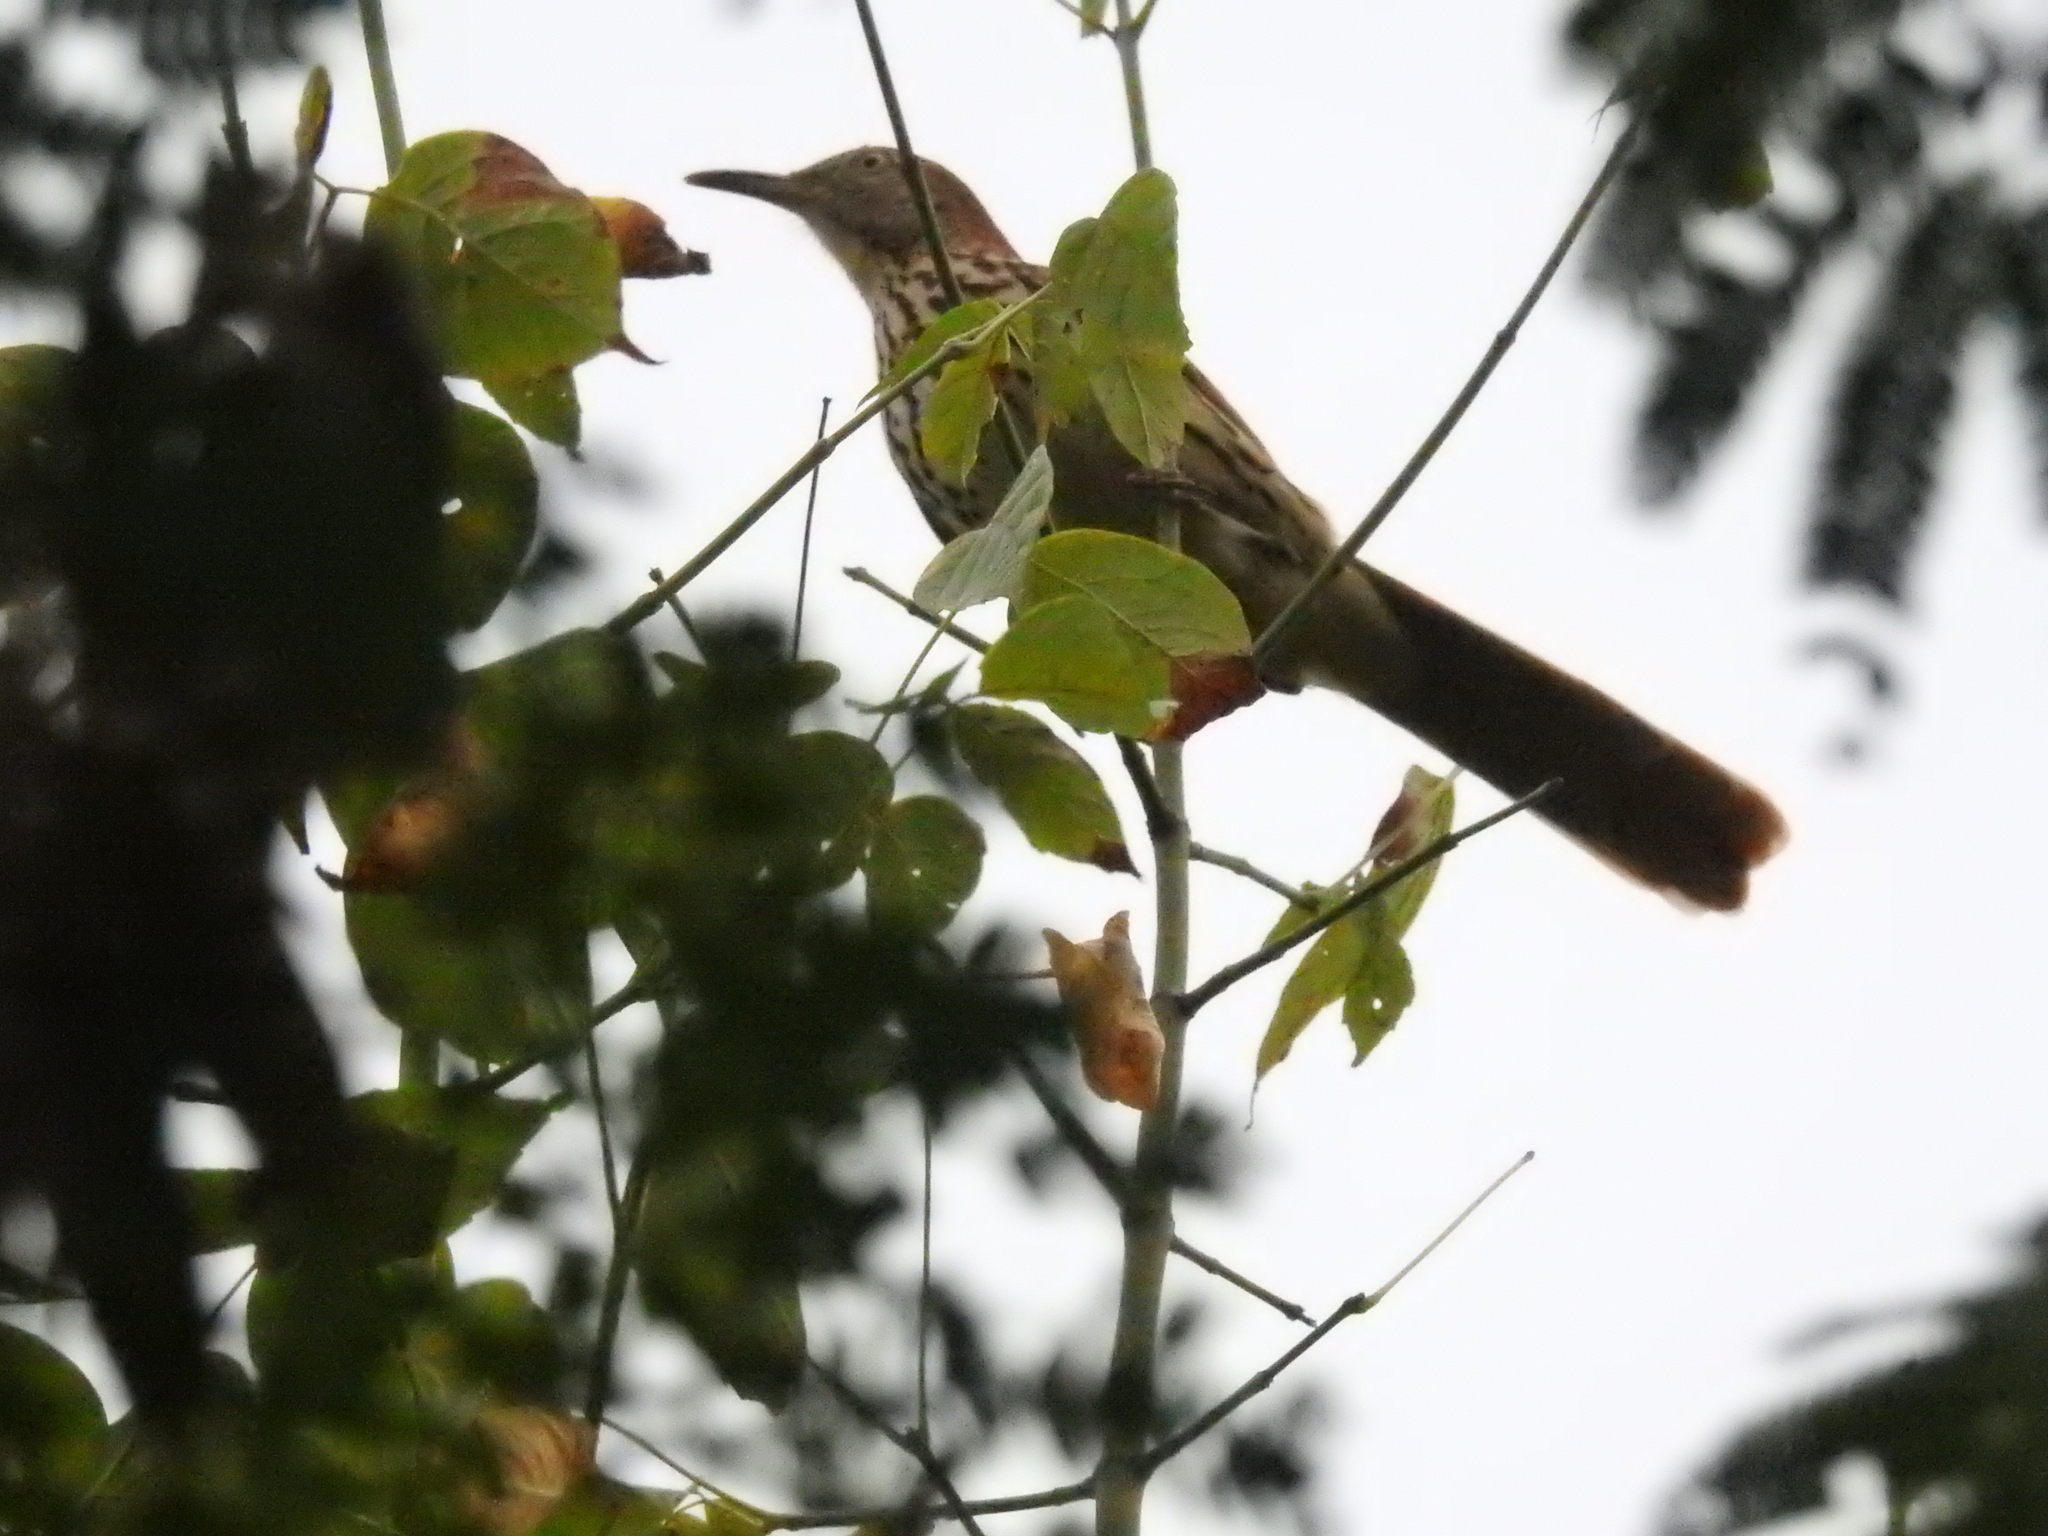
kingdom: Animalia
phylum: Chordata
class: Aves
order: Passeriformes
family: Mimidae
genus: Toxostoma
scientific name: Toxostoma rufum
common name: Brown thrasher
